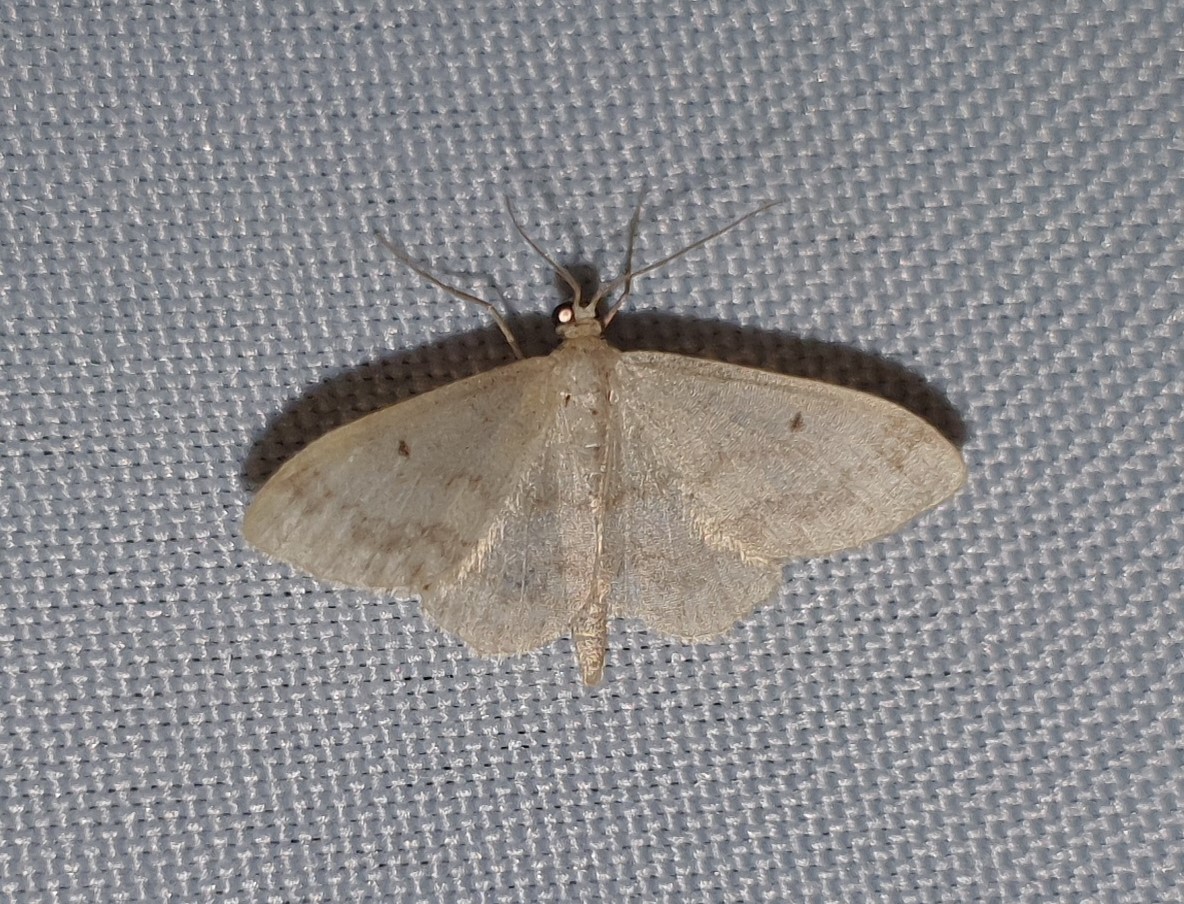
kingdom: Animalia
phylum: Arthropoda
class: Insecta
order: Lepidoptera
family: Geometridae
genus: Idaea
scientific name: Idaea biselata
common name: Small fan-footed wave
